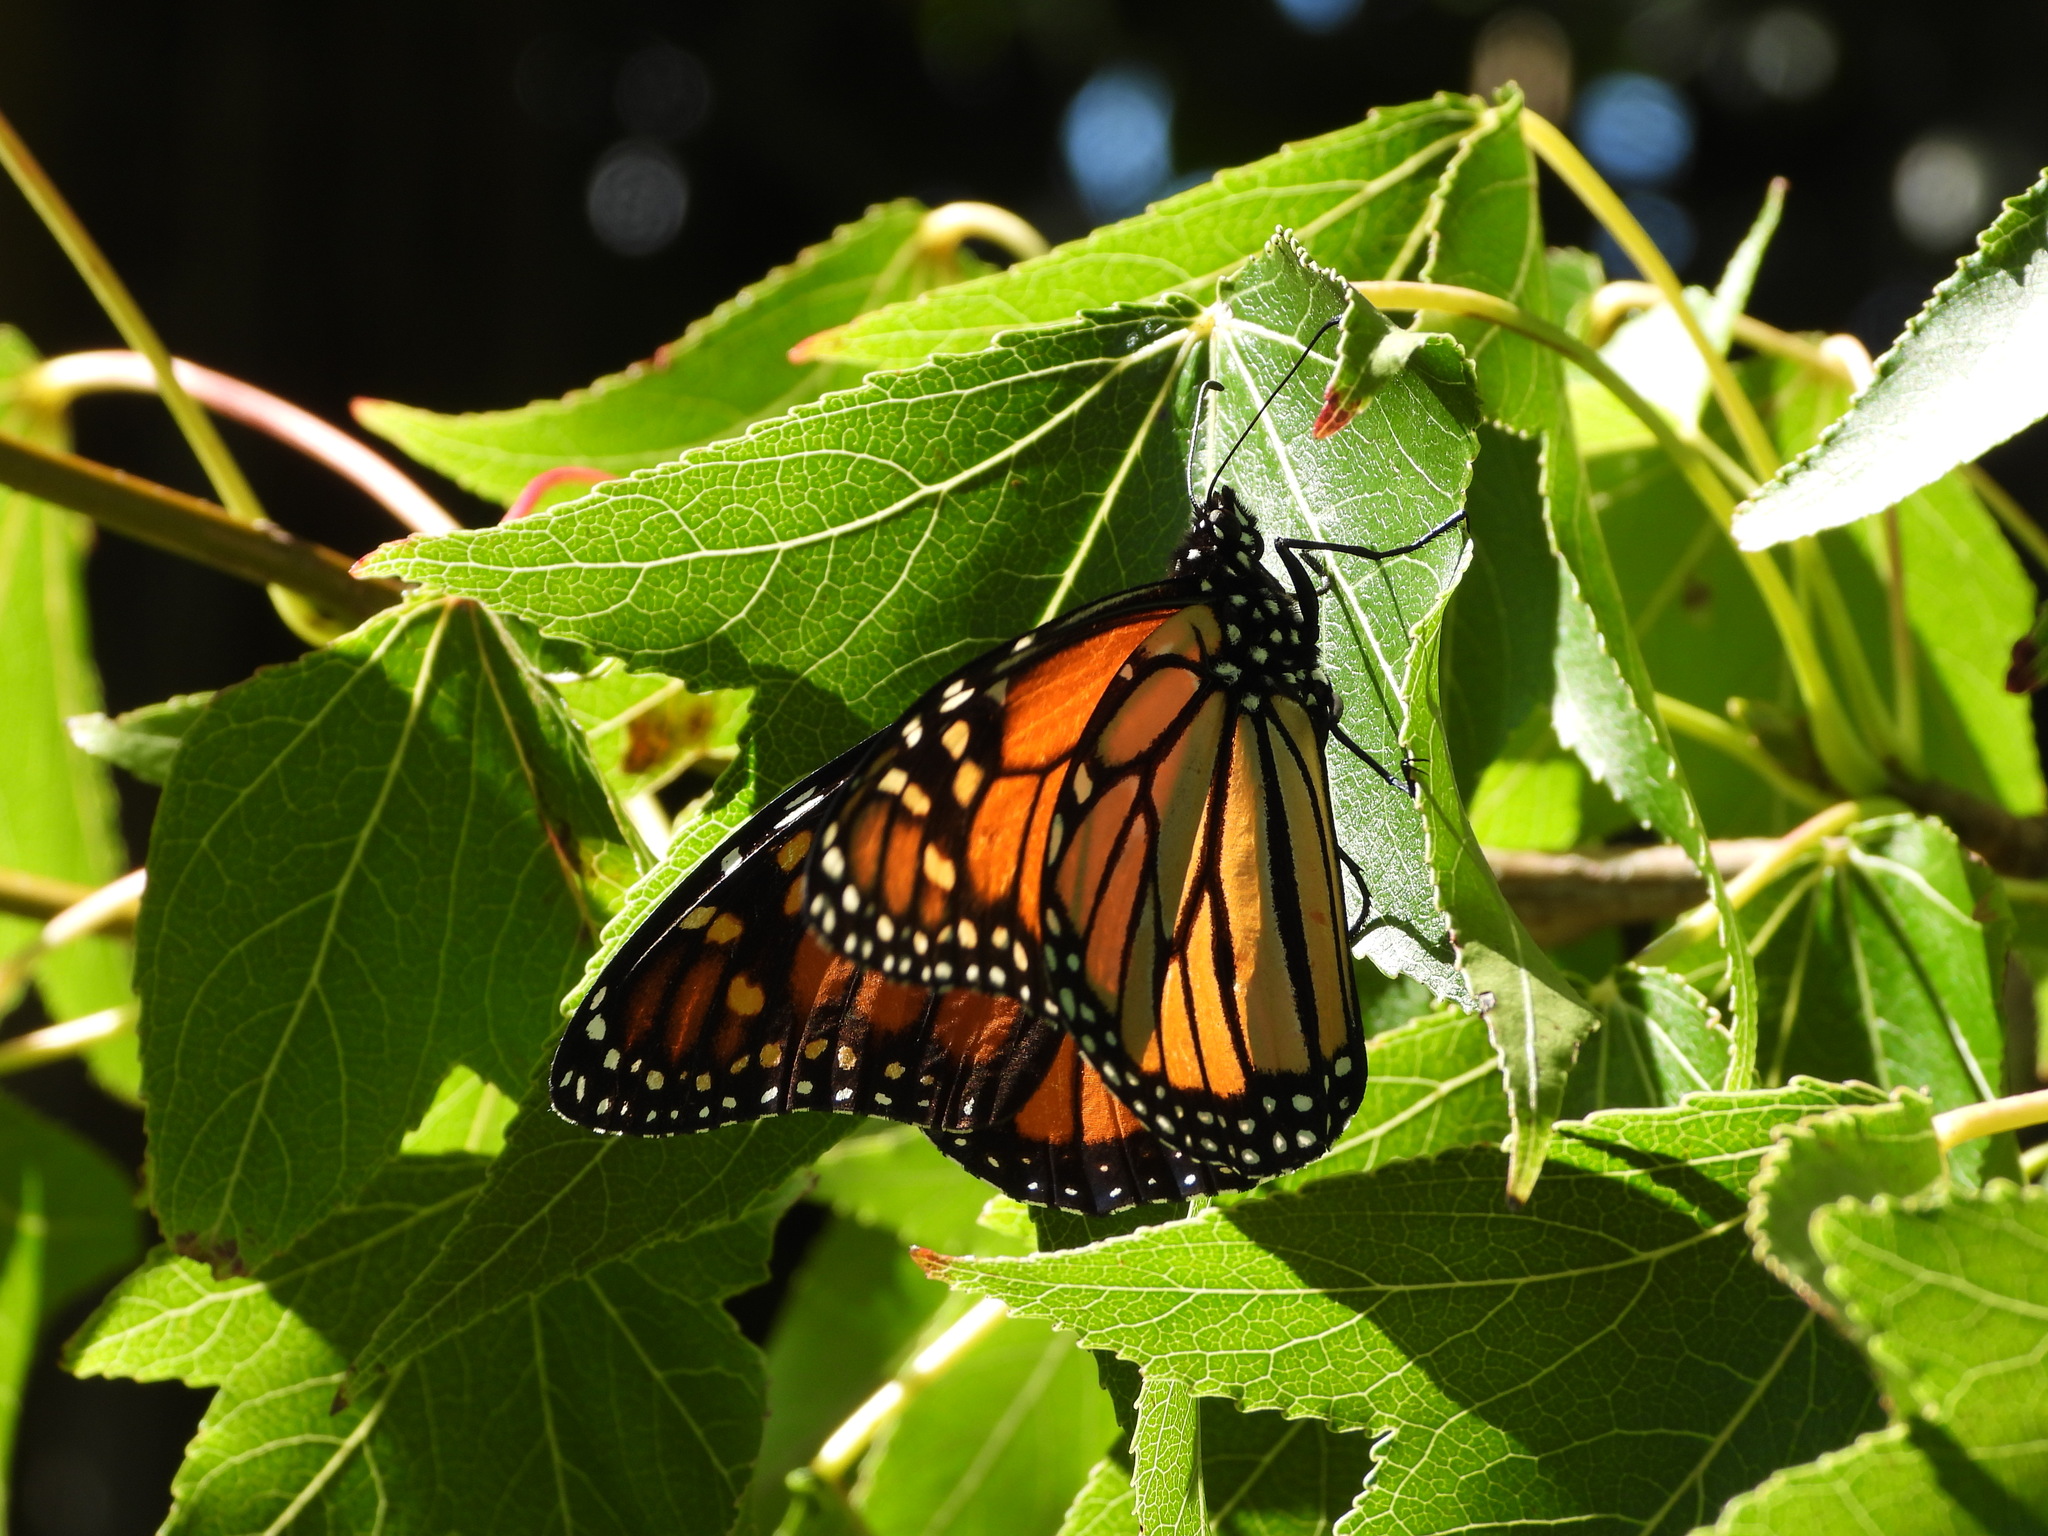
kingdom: Animalia
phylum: Arthropoda
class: Insecta
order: Lepidoptera
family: Nymphalidae
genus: Danaus
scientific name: Danaus plexippus
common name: Monarch
